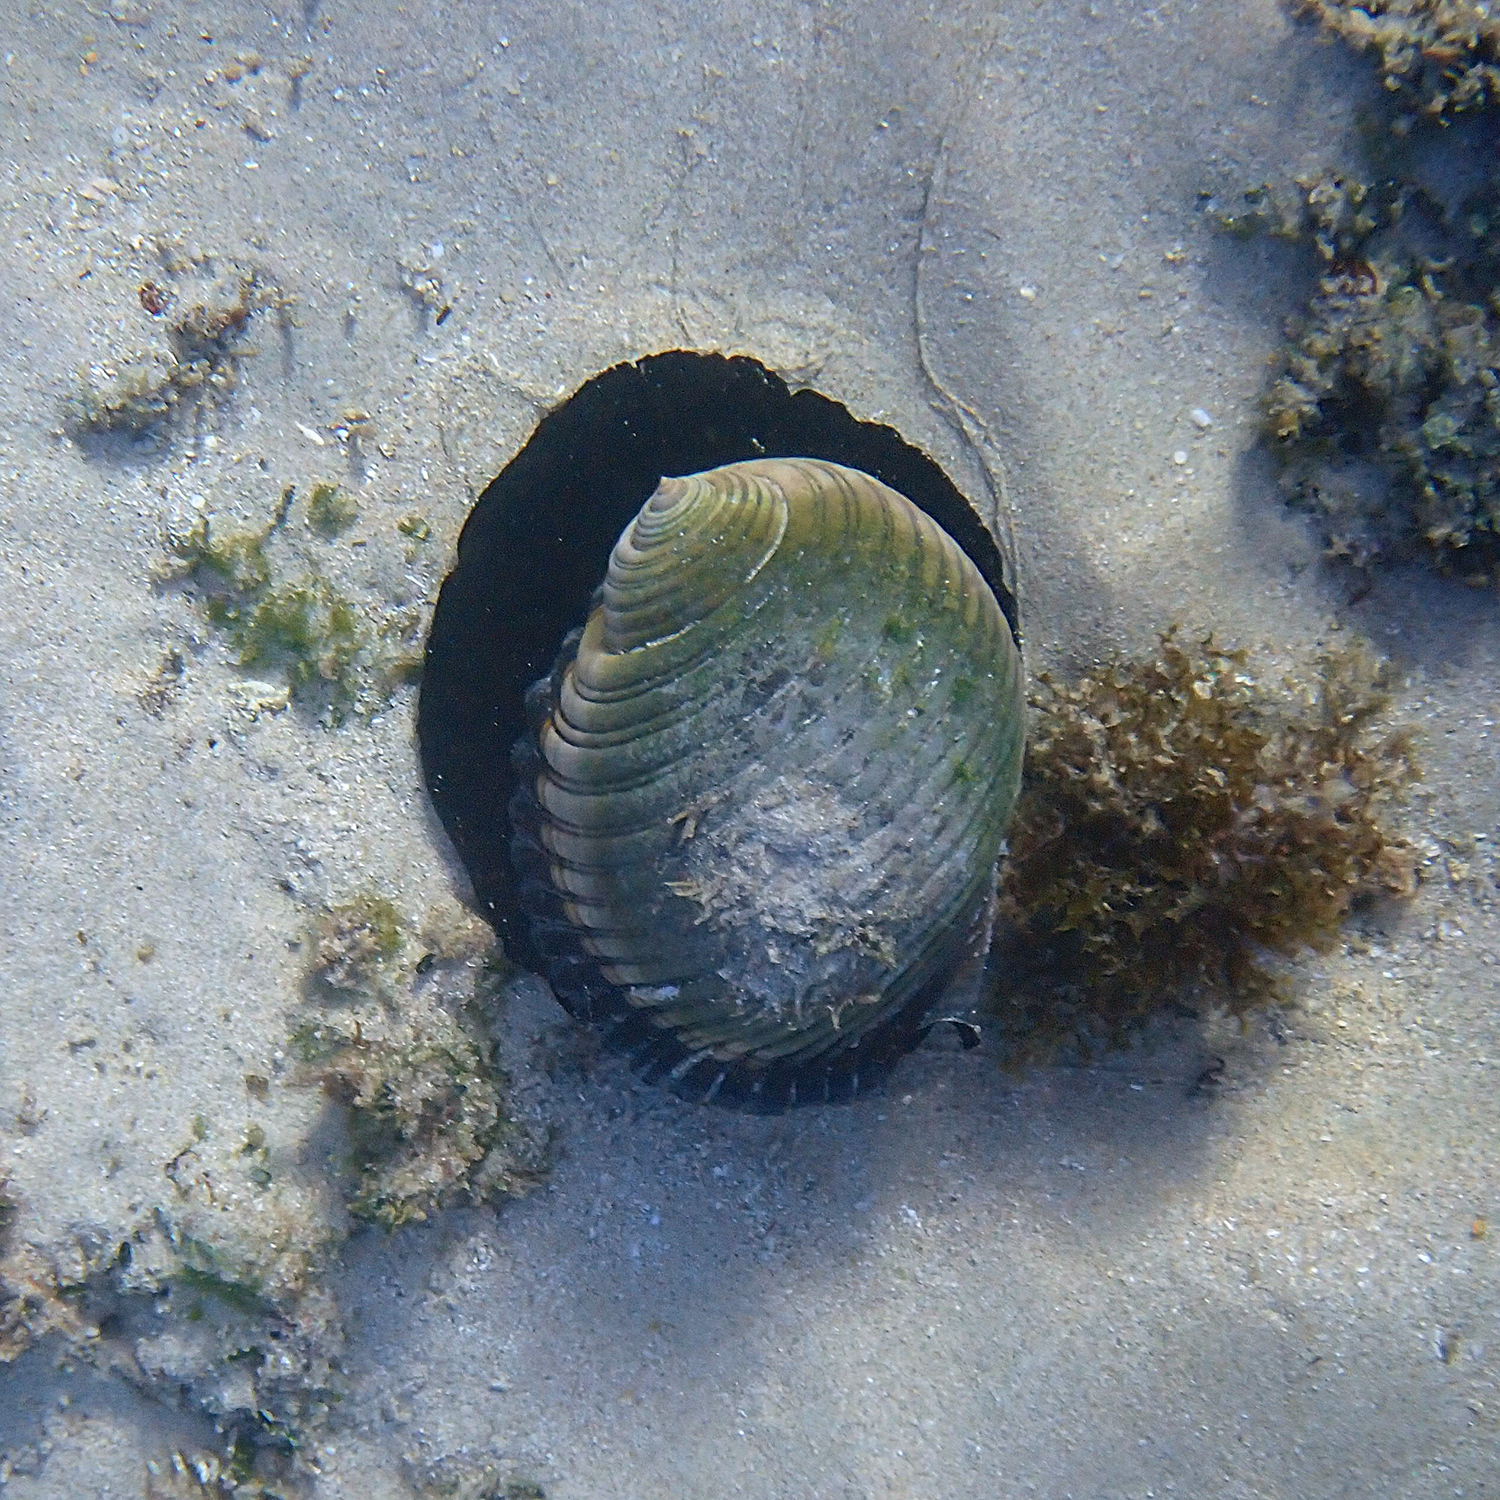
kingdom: Animalia
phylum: Mollusca
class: Gastropoda
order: Littorinimorpha
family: Tonnidae
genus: Tonna
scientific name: Tonna melanostoma
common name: Black mouthed tun
